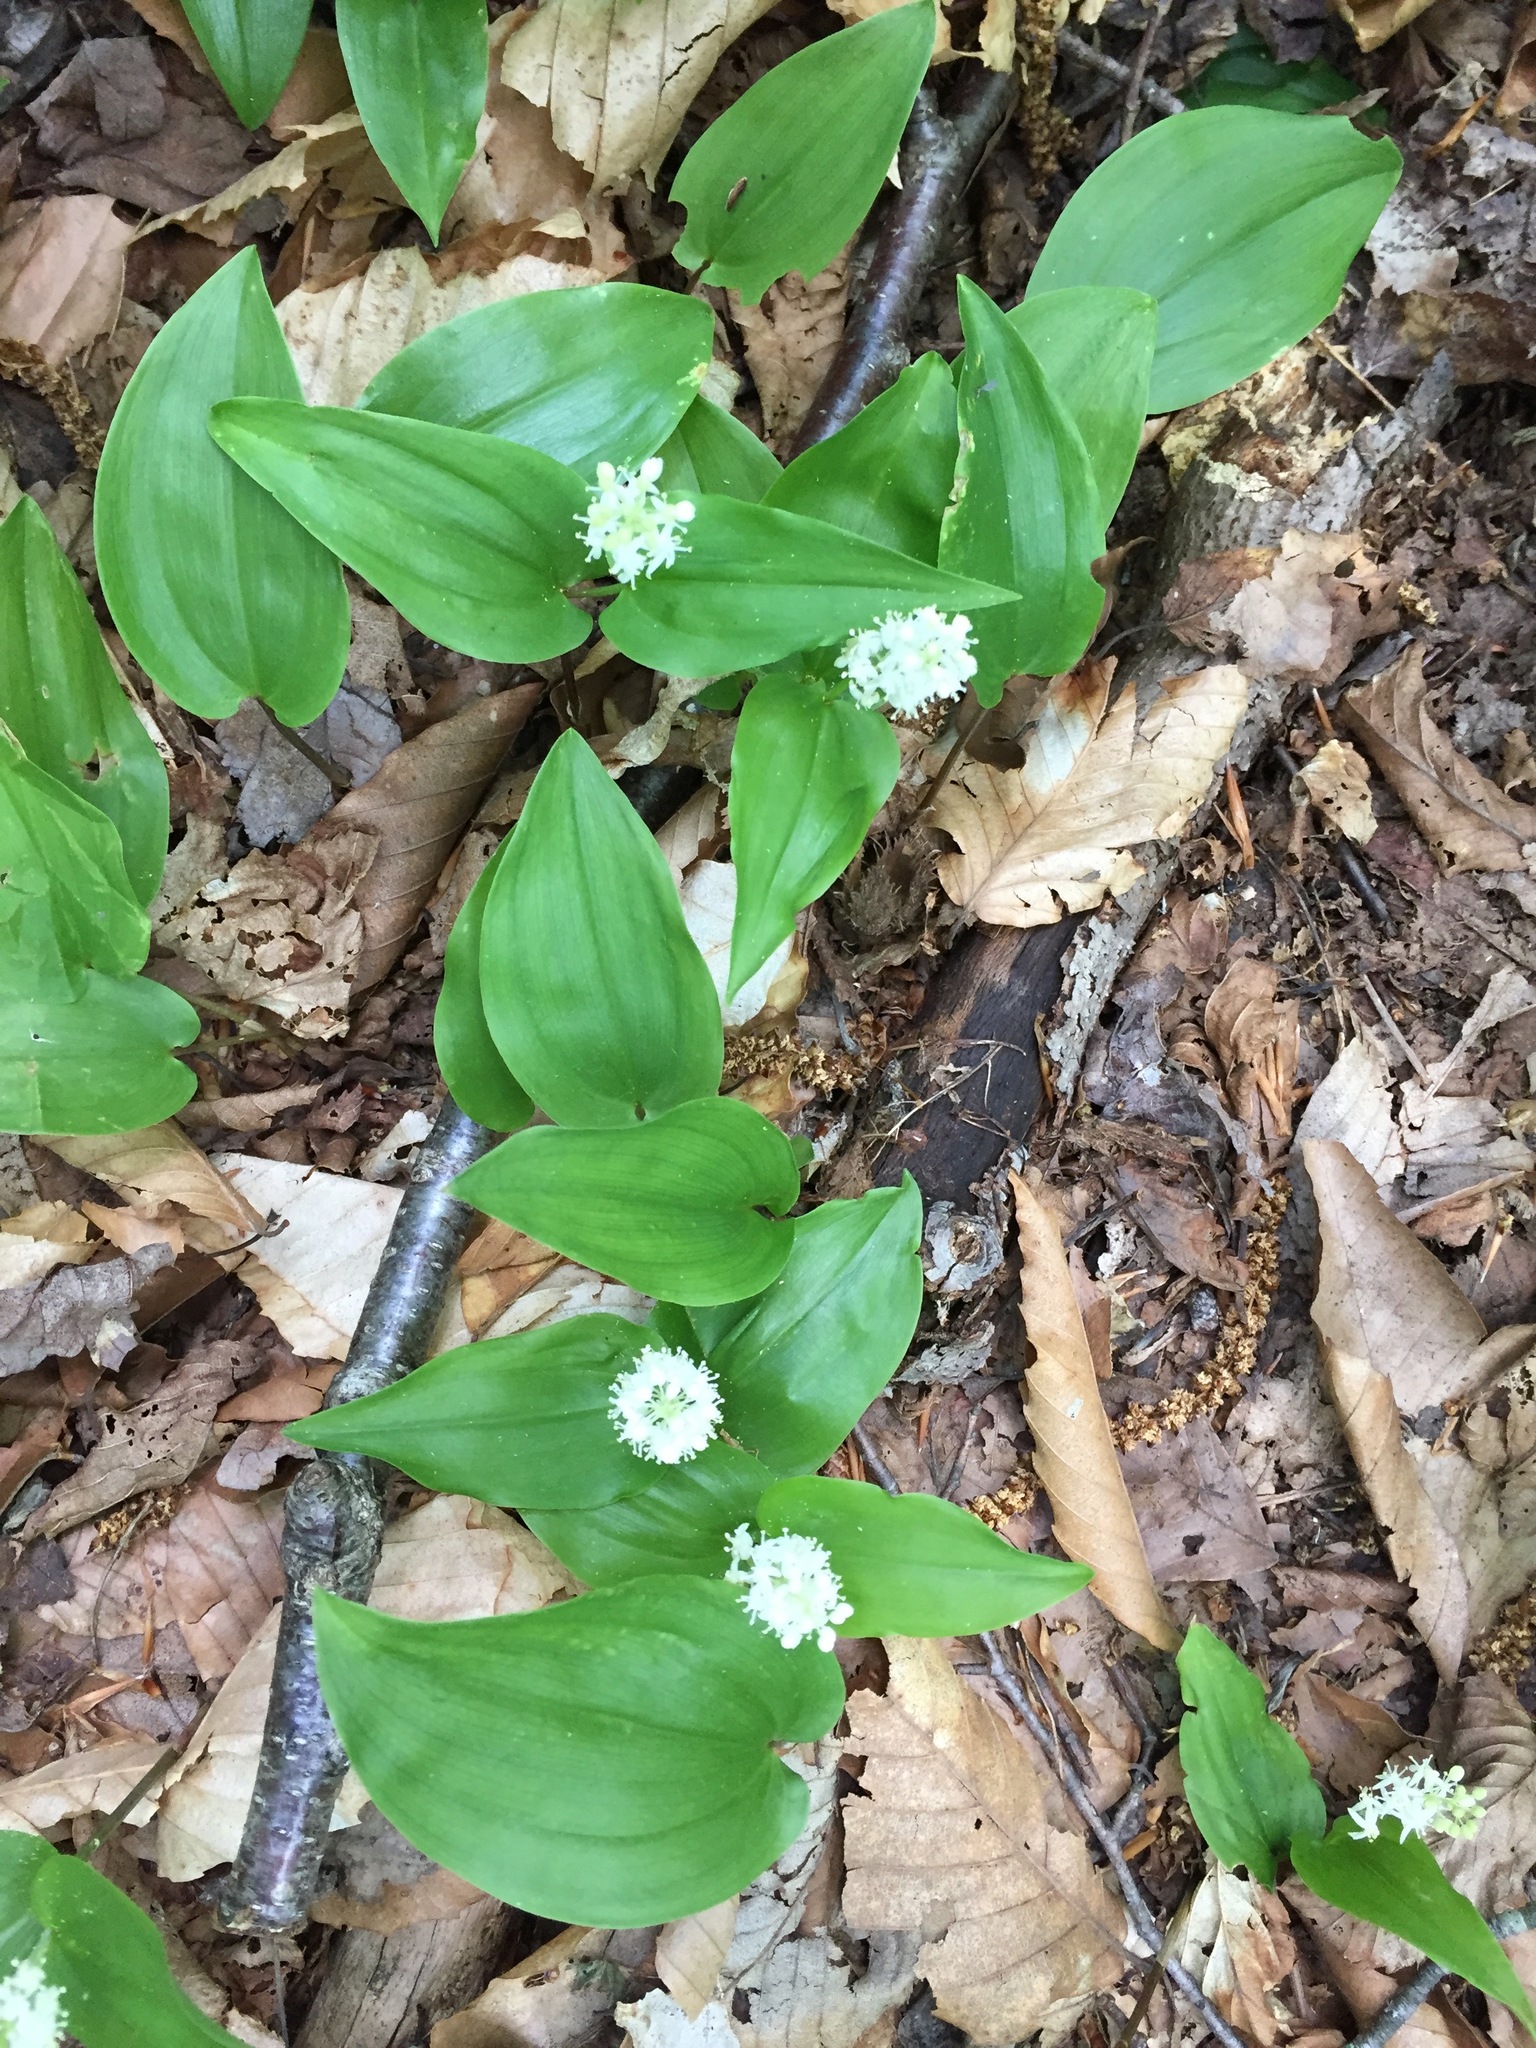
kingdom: Plantae
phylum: Tracheophyta
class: Liliopsida
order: Asparagales
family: Asparagaceae
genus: Maianthemum
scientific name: Maianthemum canadense
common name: False lily-of-the-valley
